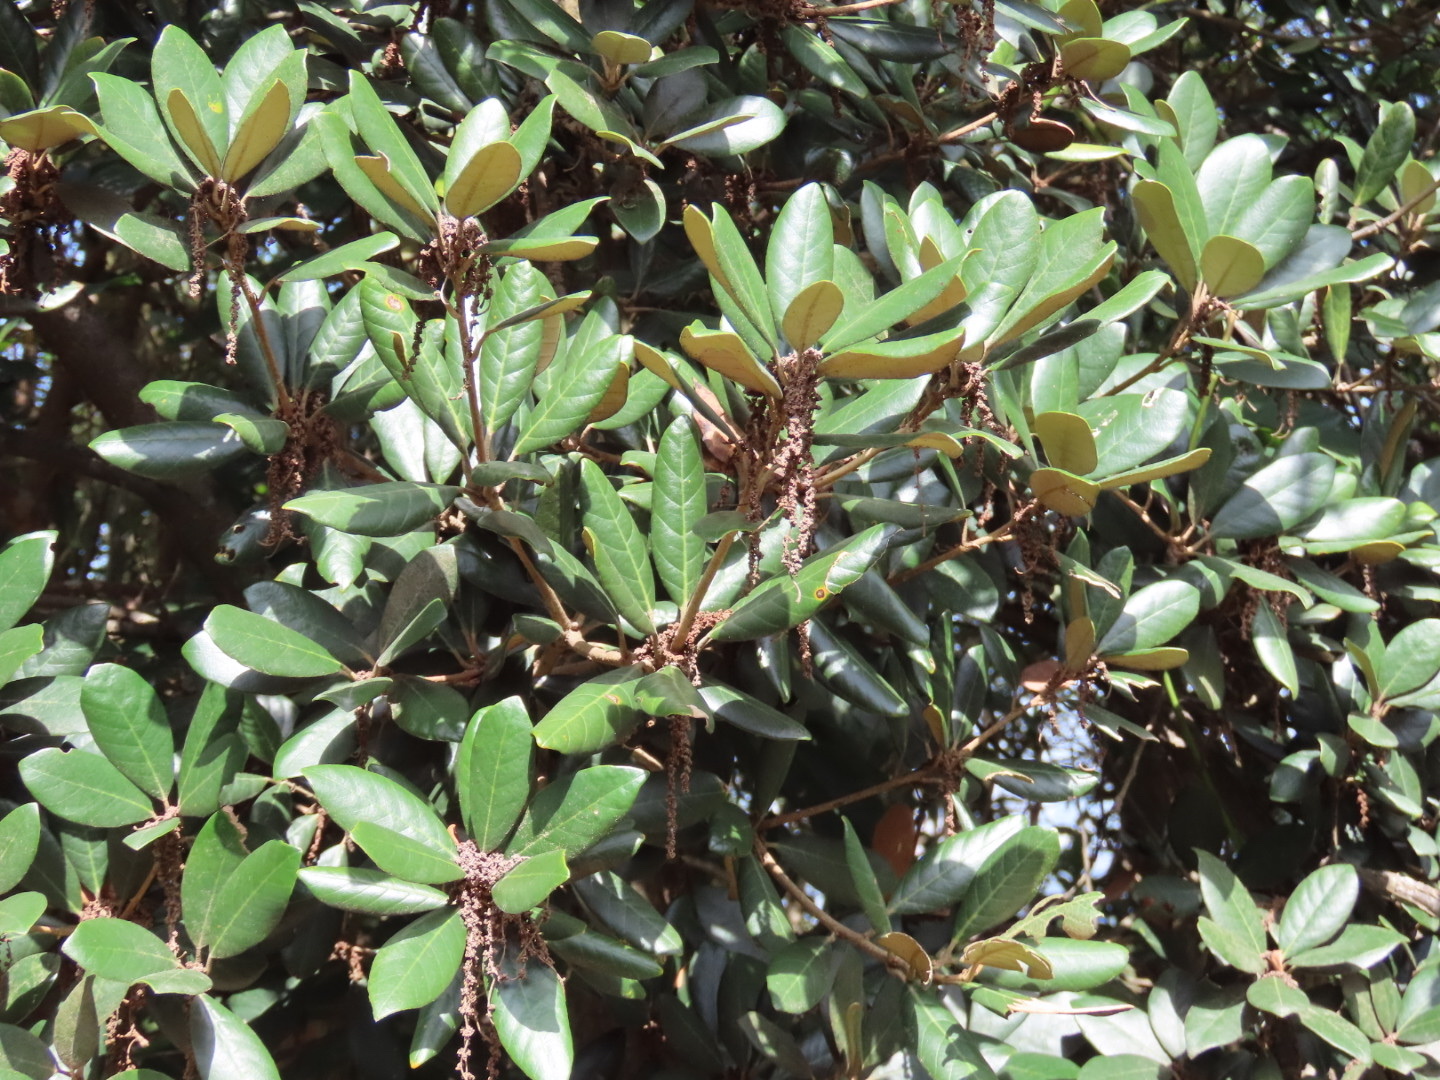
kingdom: Plantae
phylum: Tracheophyta
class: Magnoliopsida
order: Fagales
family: Fagaceae
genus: Quercus
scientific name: Quercus championii
